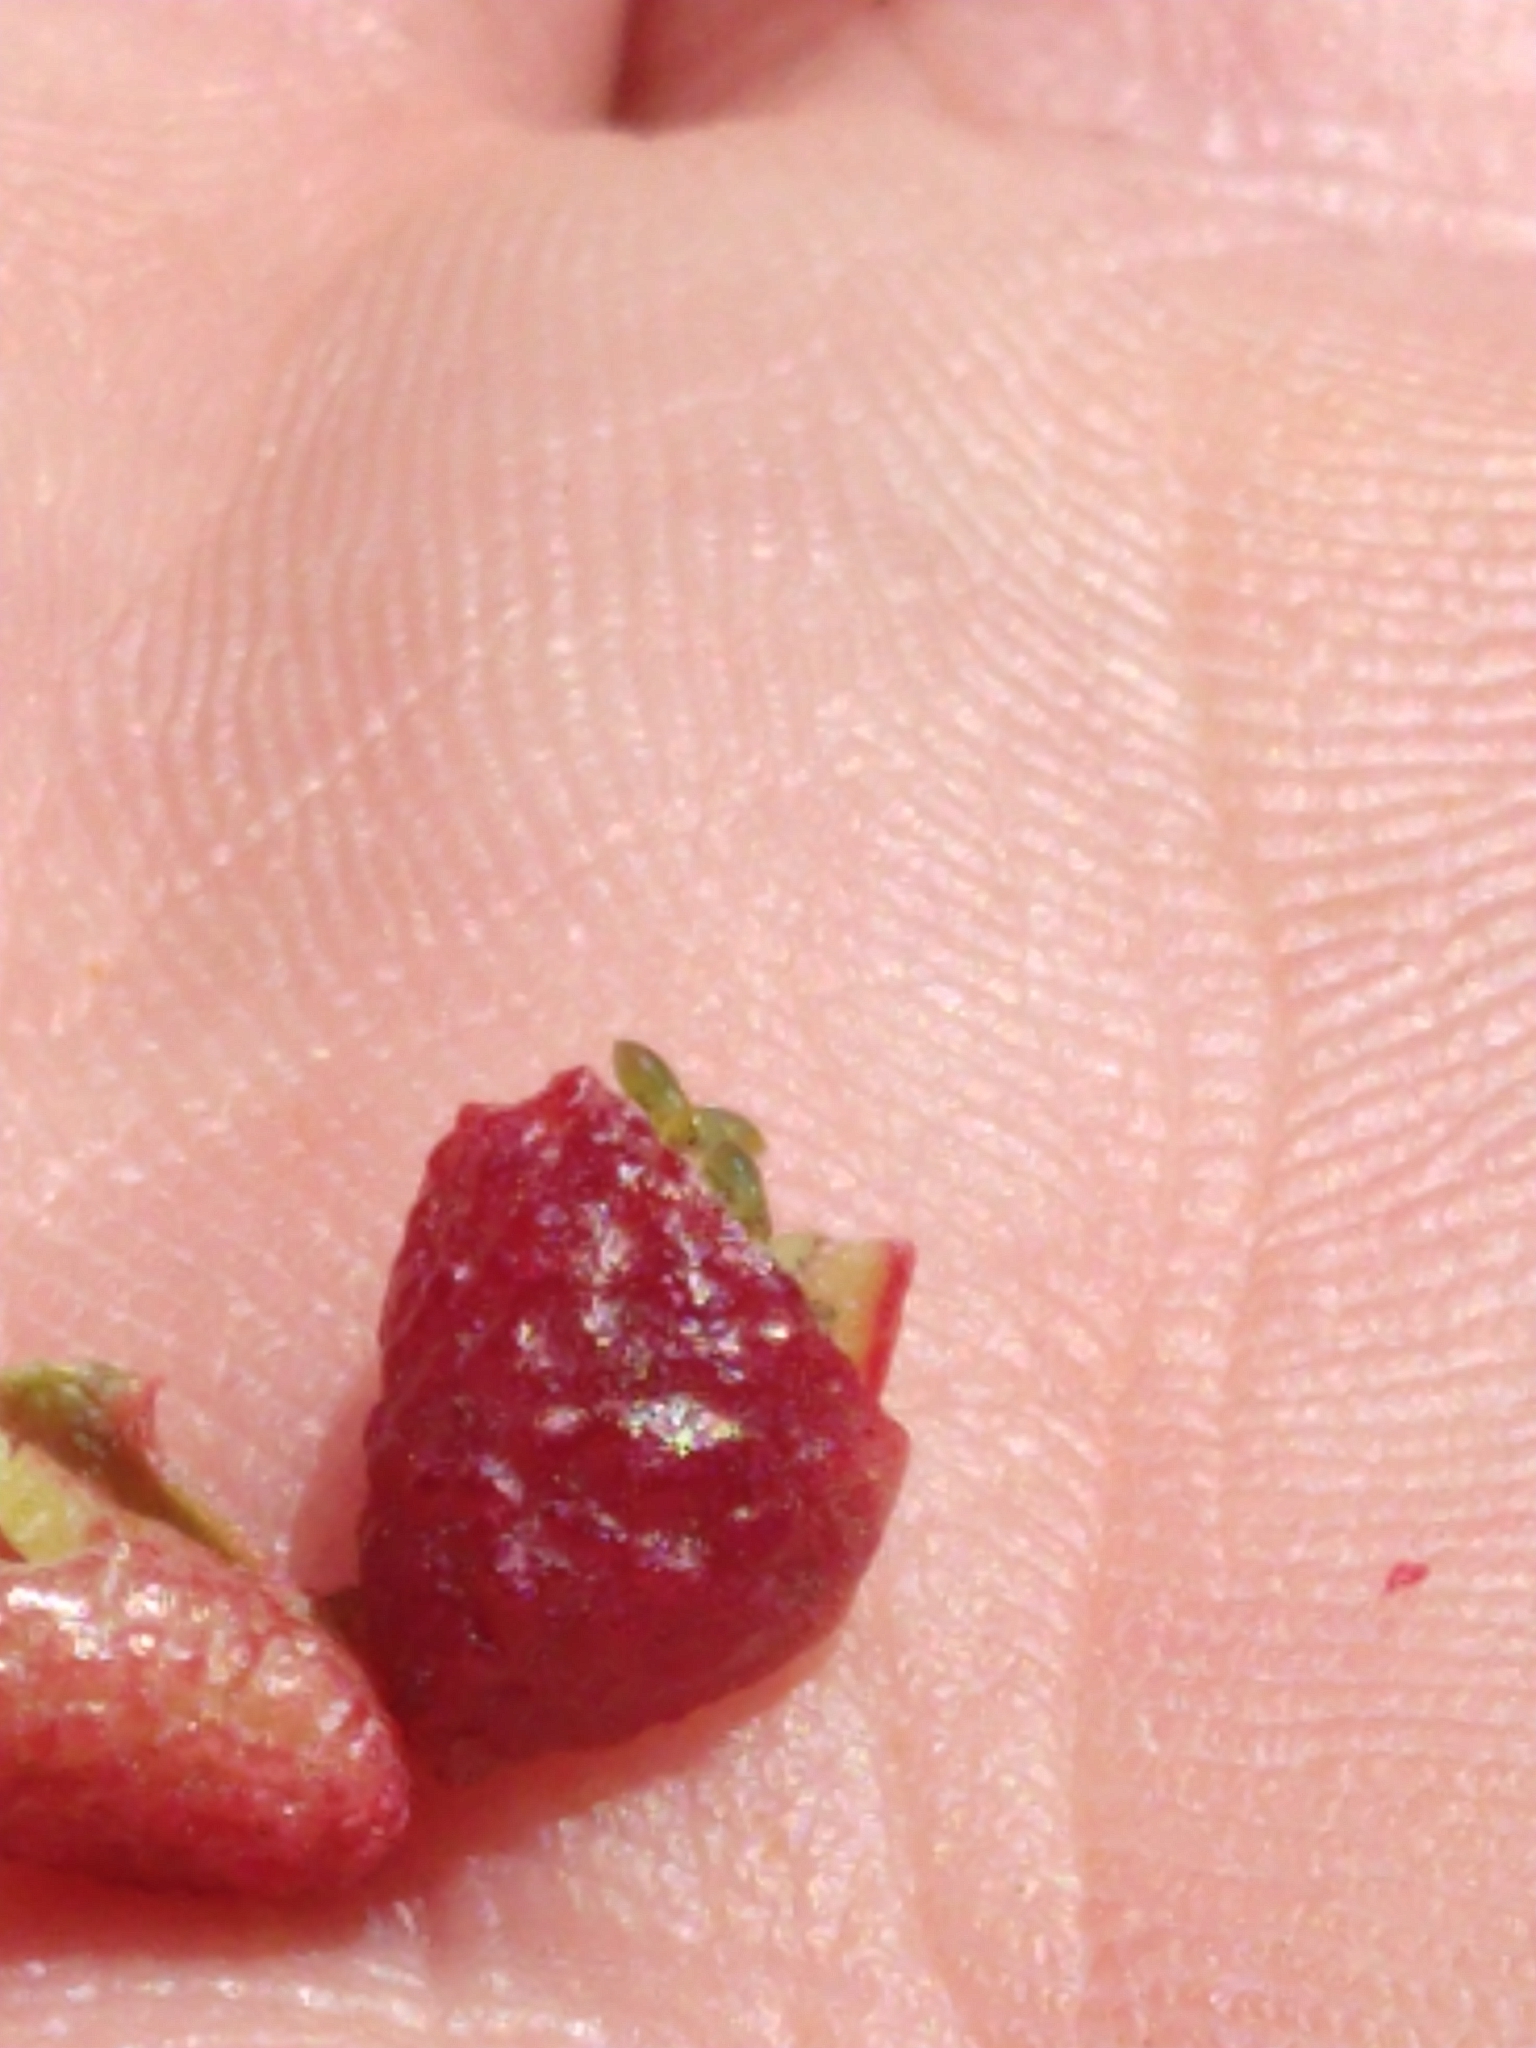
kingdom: Animalia
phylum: Arthropoda
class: Insecta
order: Hemiptera
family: Aphididae
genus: Tamalia
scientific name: Tamalia coweni
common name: Manzanita leafgall aphid
